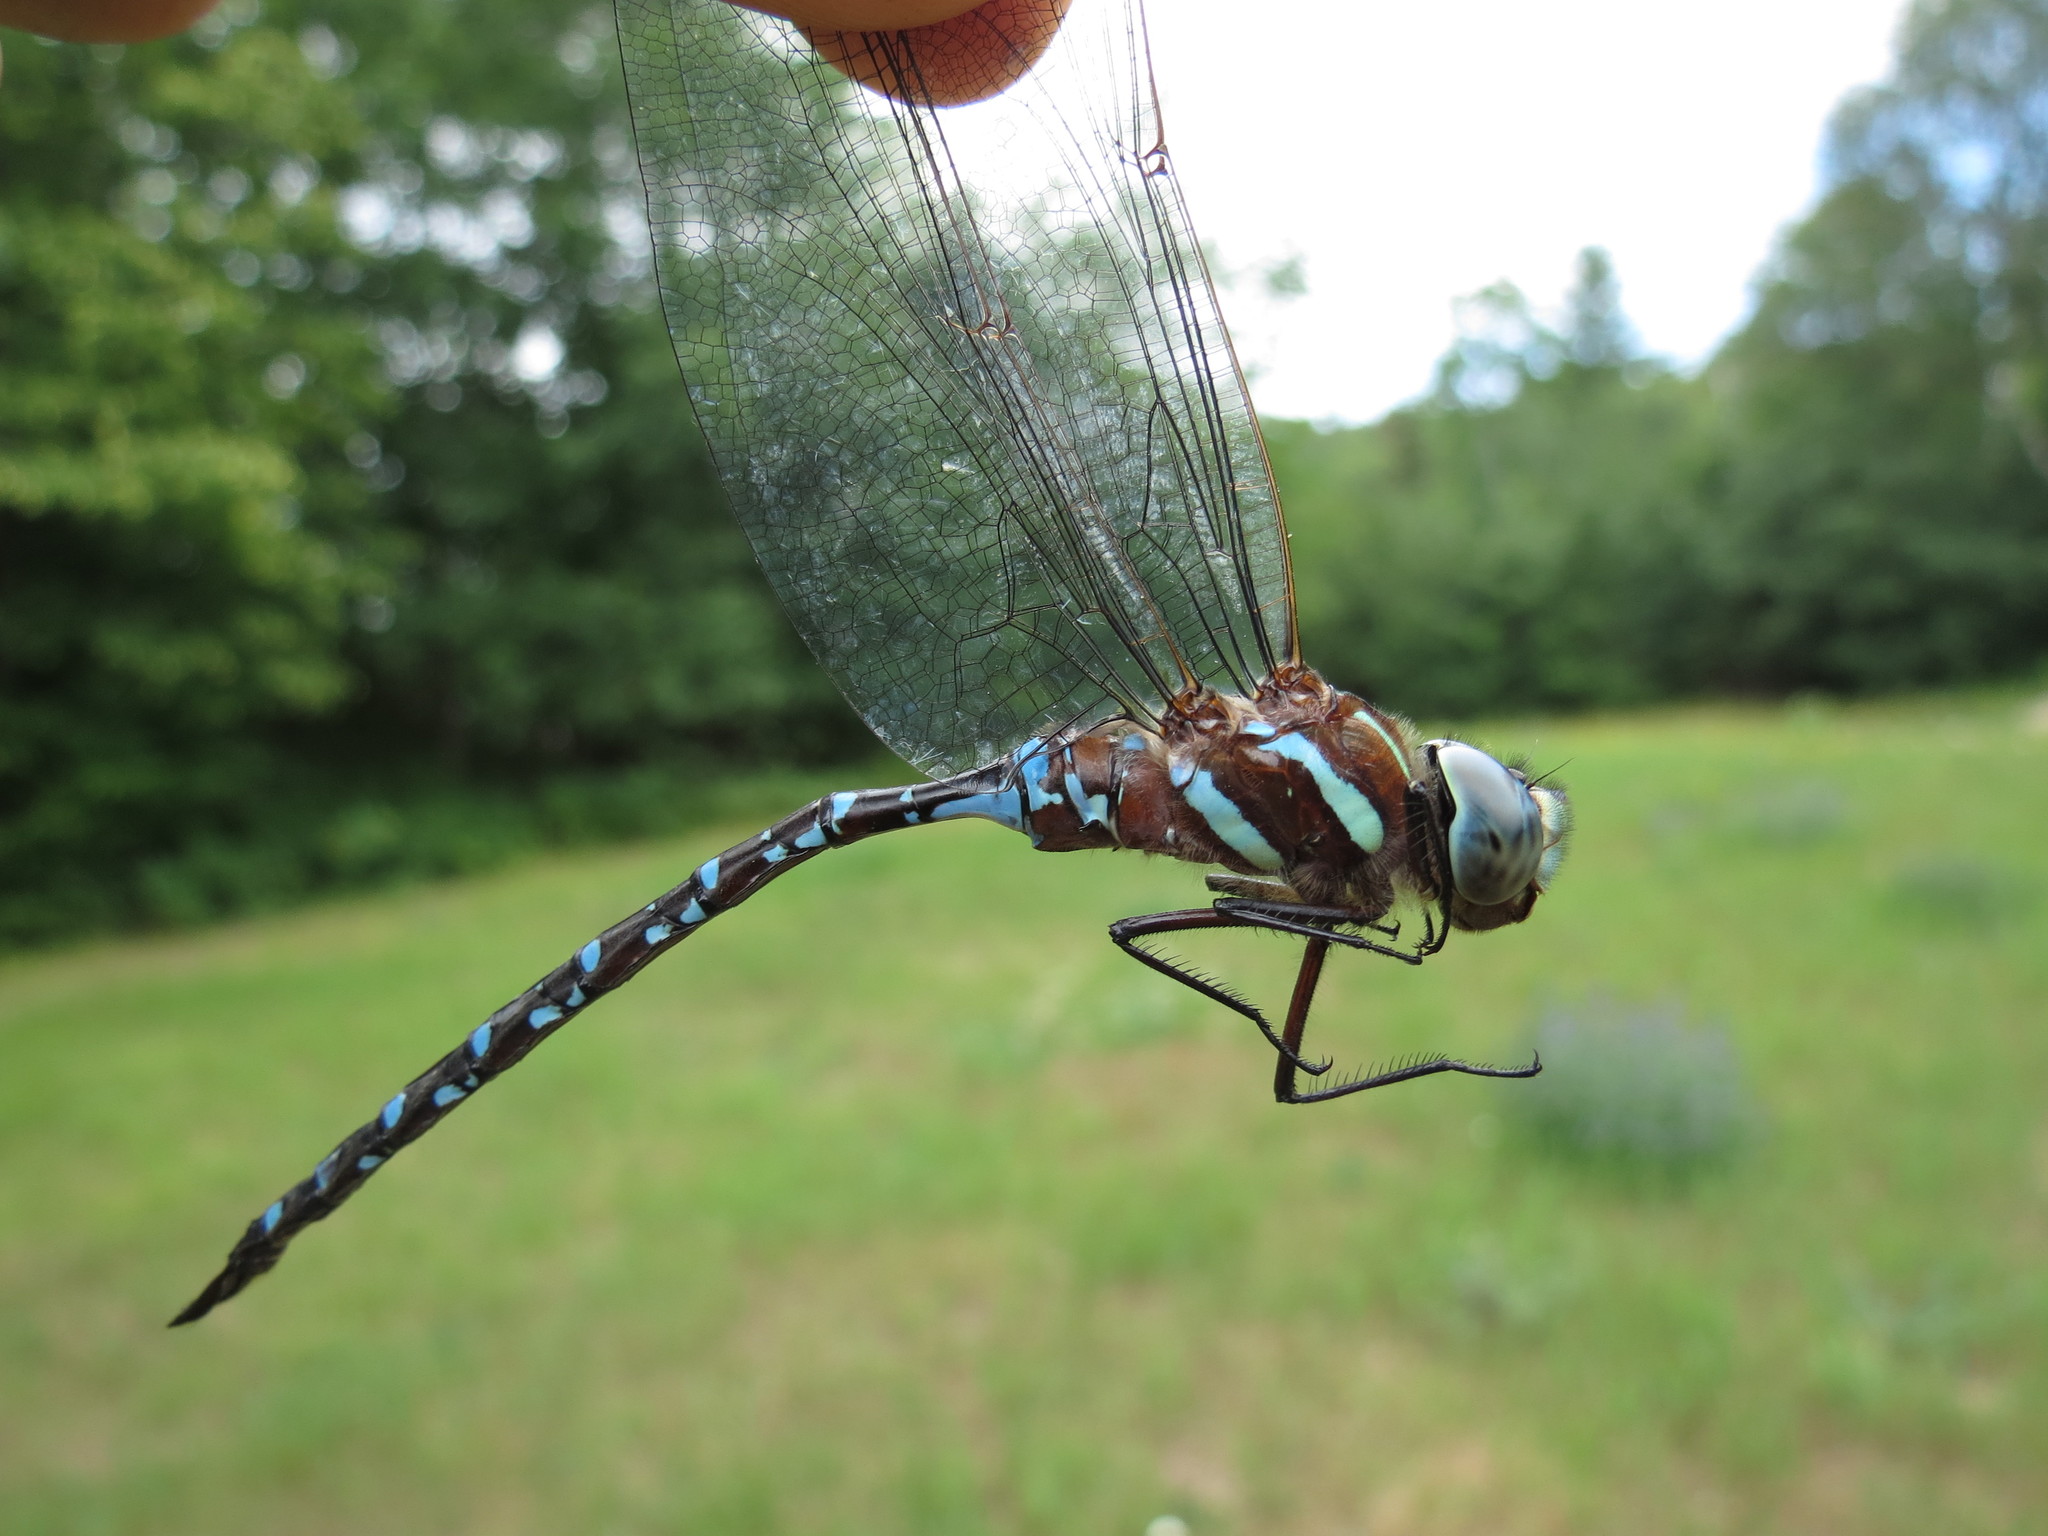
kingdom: Animalia
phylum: Arthropoda
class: Insecta
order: Odonata
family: Aeshnidae
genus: Aeshna
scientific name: Aeshna tuberculifera
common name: Aeschne à tubercules
